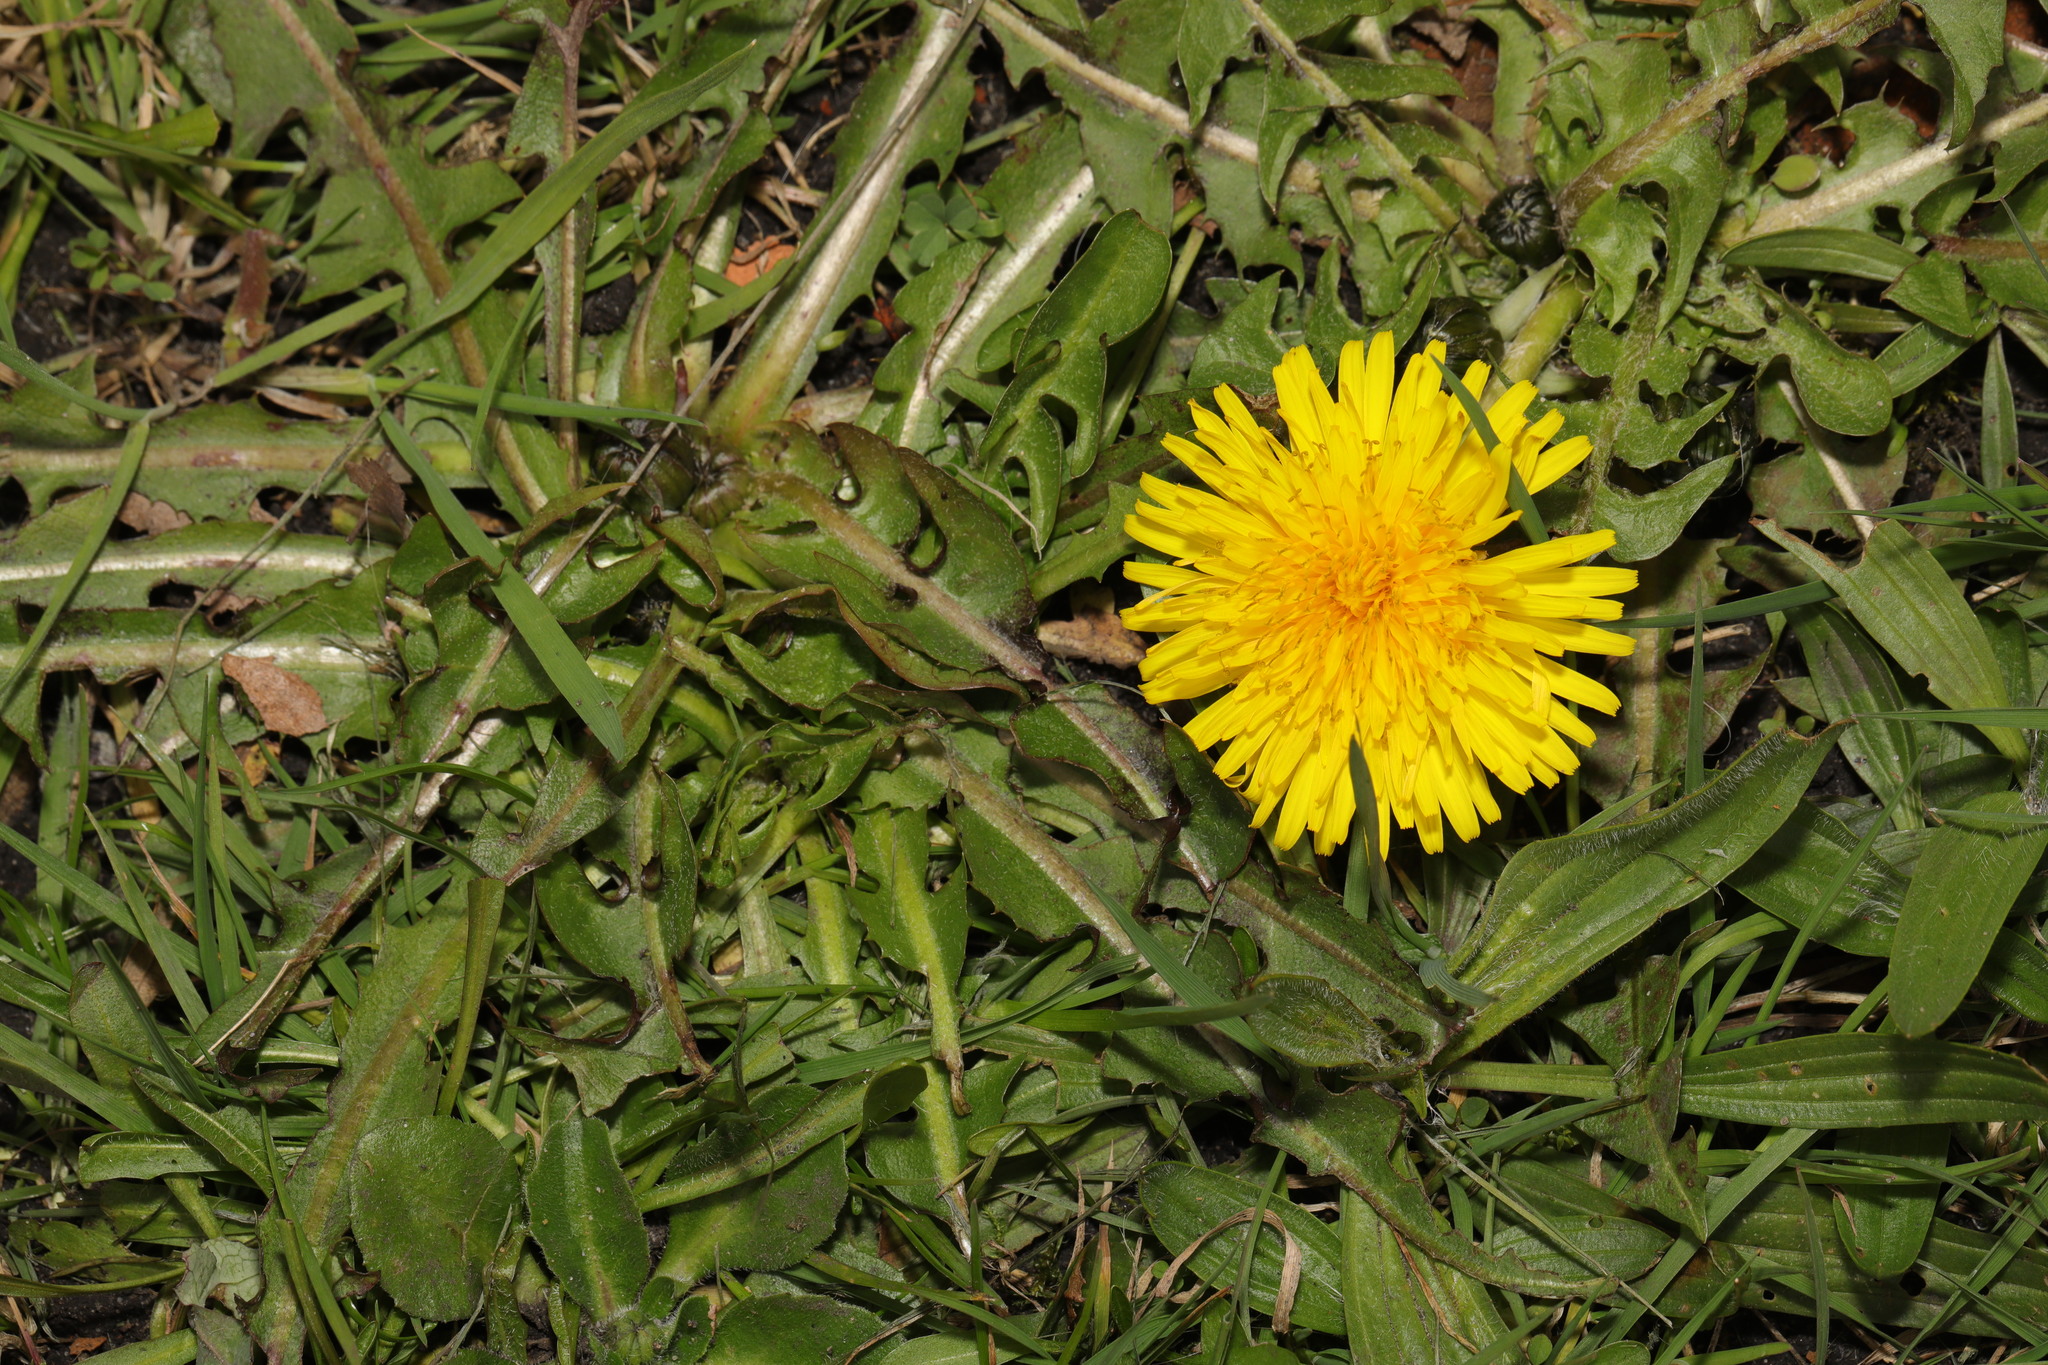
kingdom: Plantae
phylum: Tracheophyta
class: Magnoliopsida
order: Asterales
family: Asteraceae
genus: Taraxacum
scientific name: Taraxacum officinale
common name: Common dandelion
